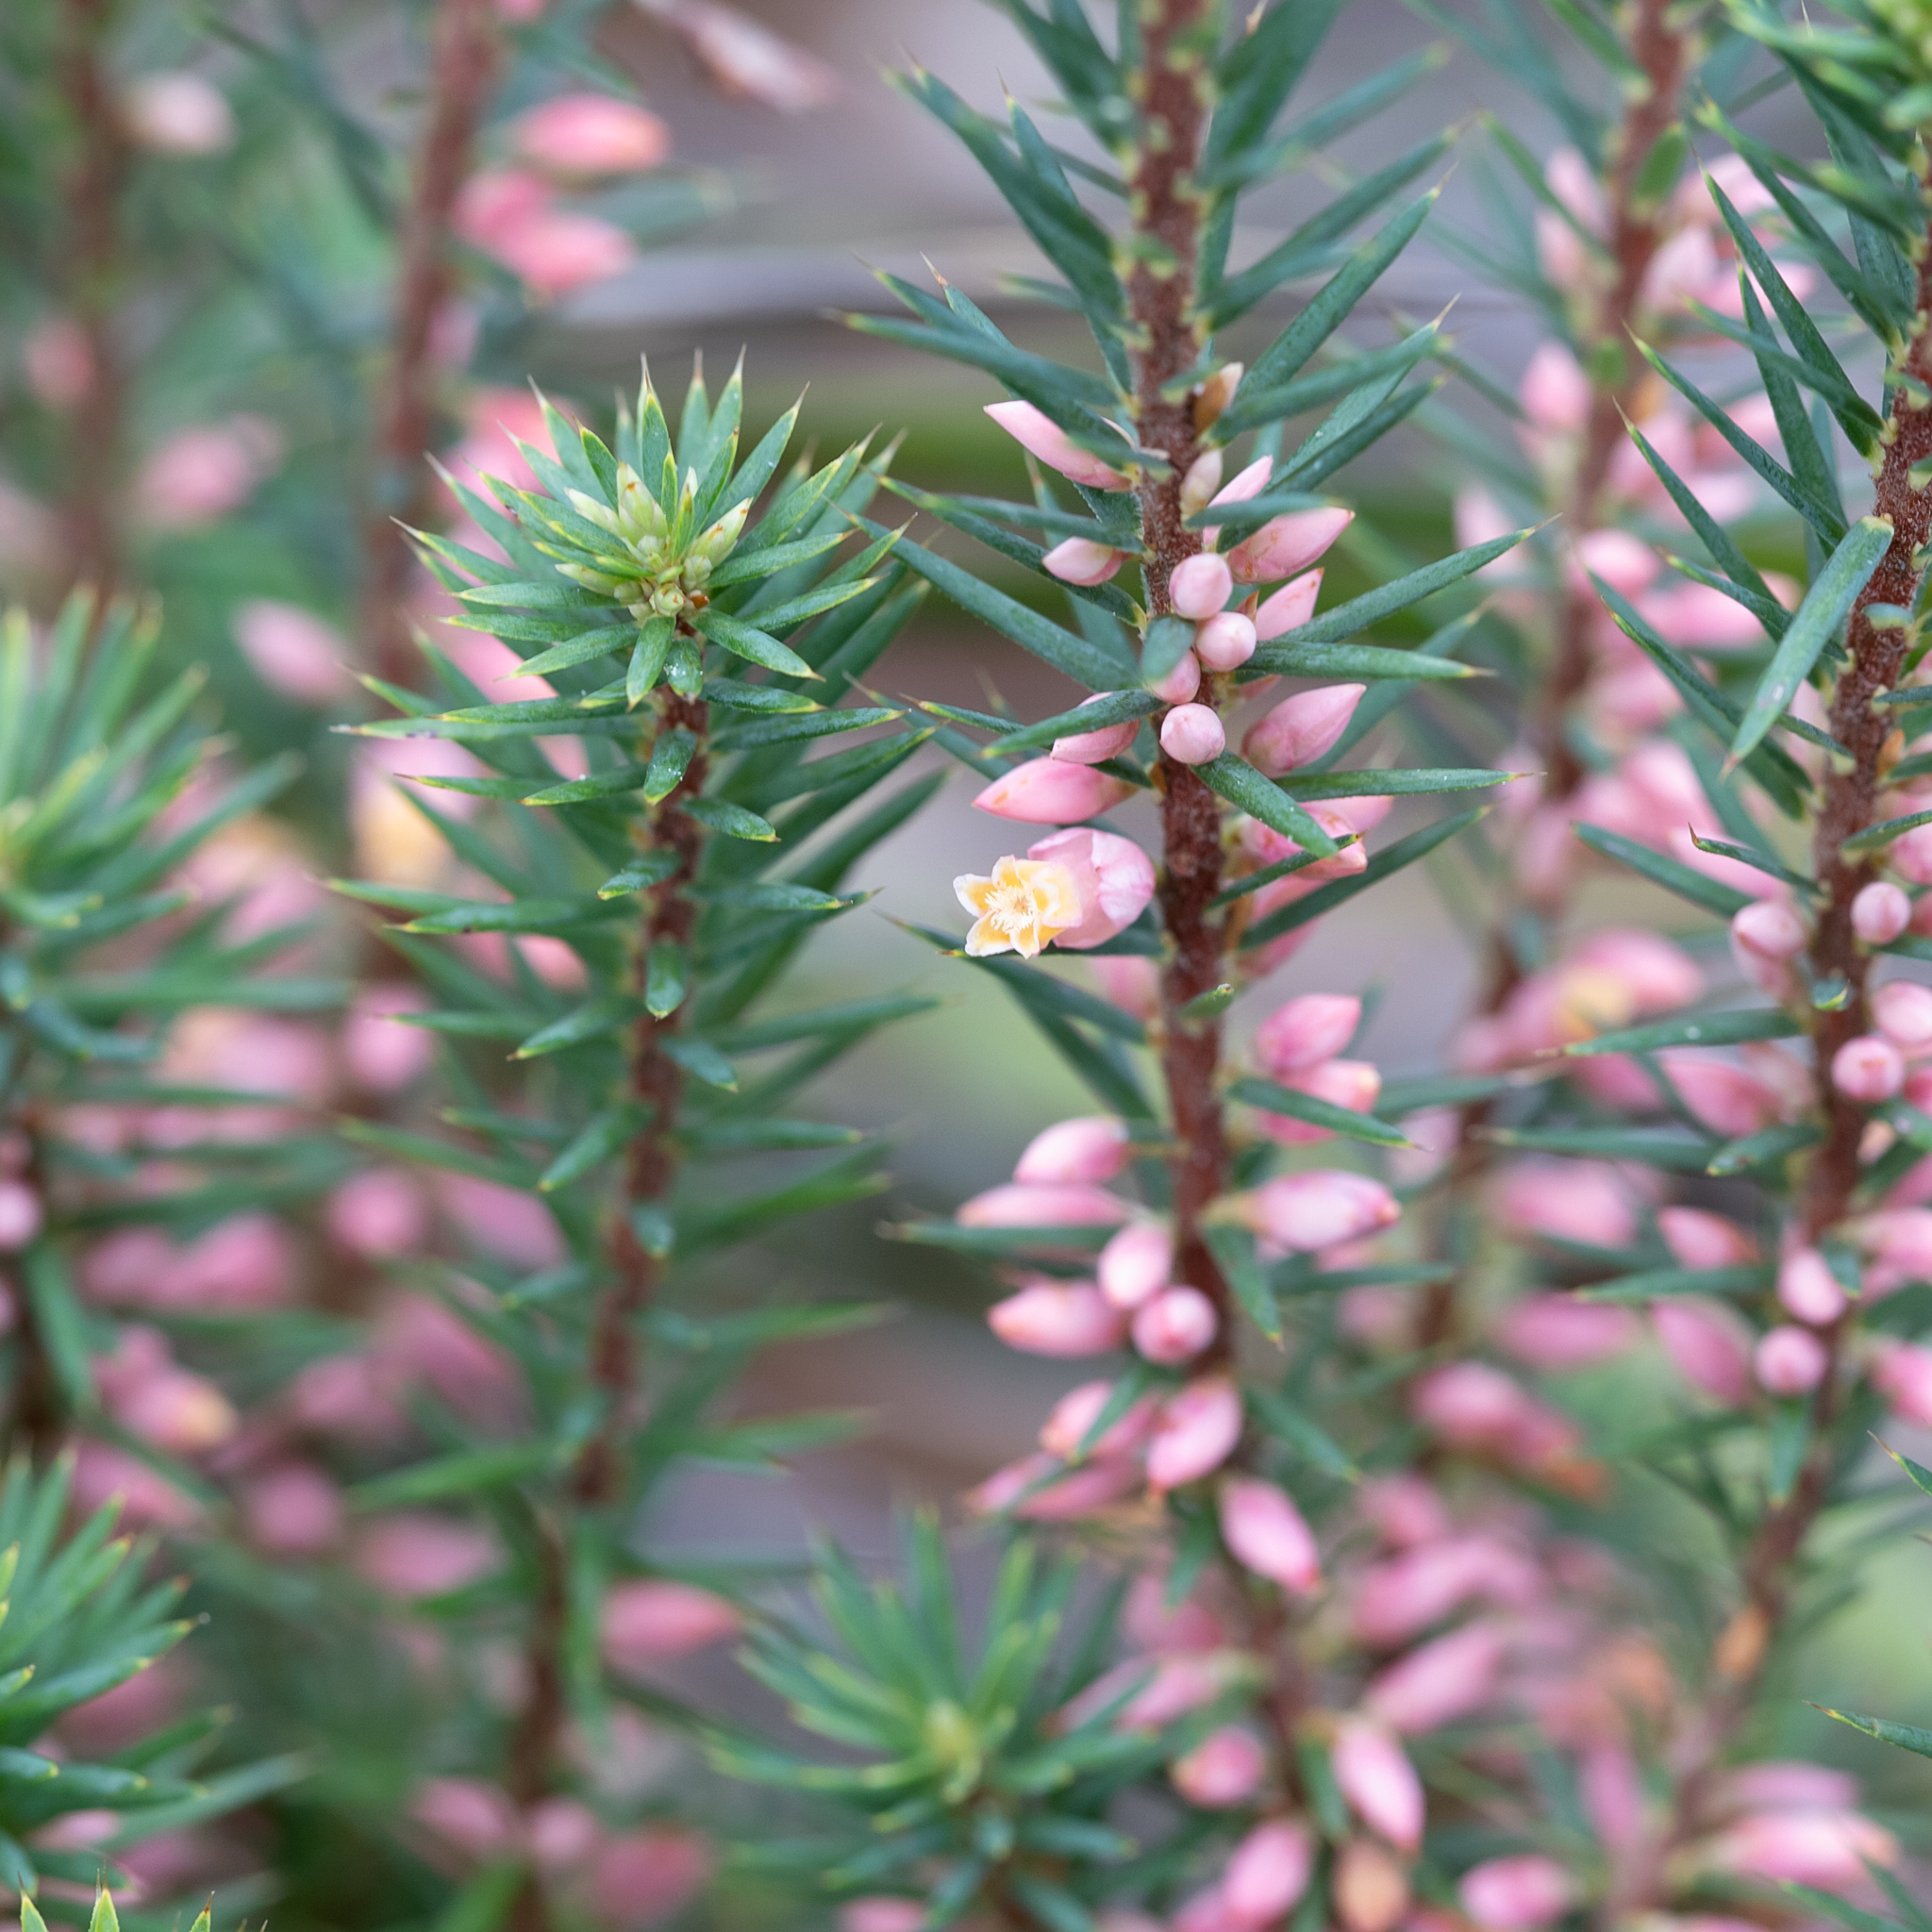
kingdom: Plantae
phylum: Tracheophyta
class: Magnoliopsida
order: Ericales
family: Ericaceae
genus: Brachyloma
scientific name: Brachyloma ericoides
